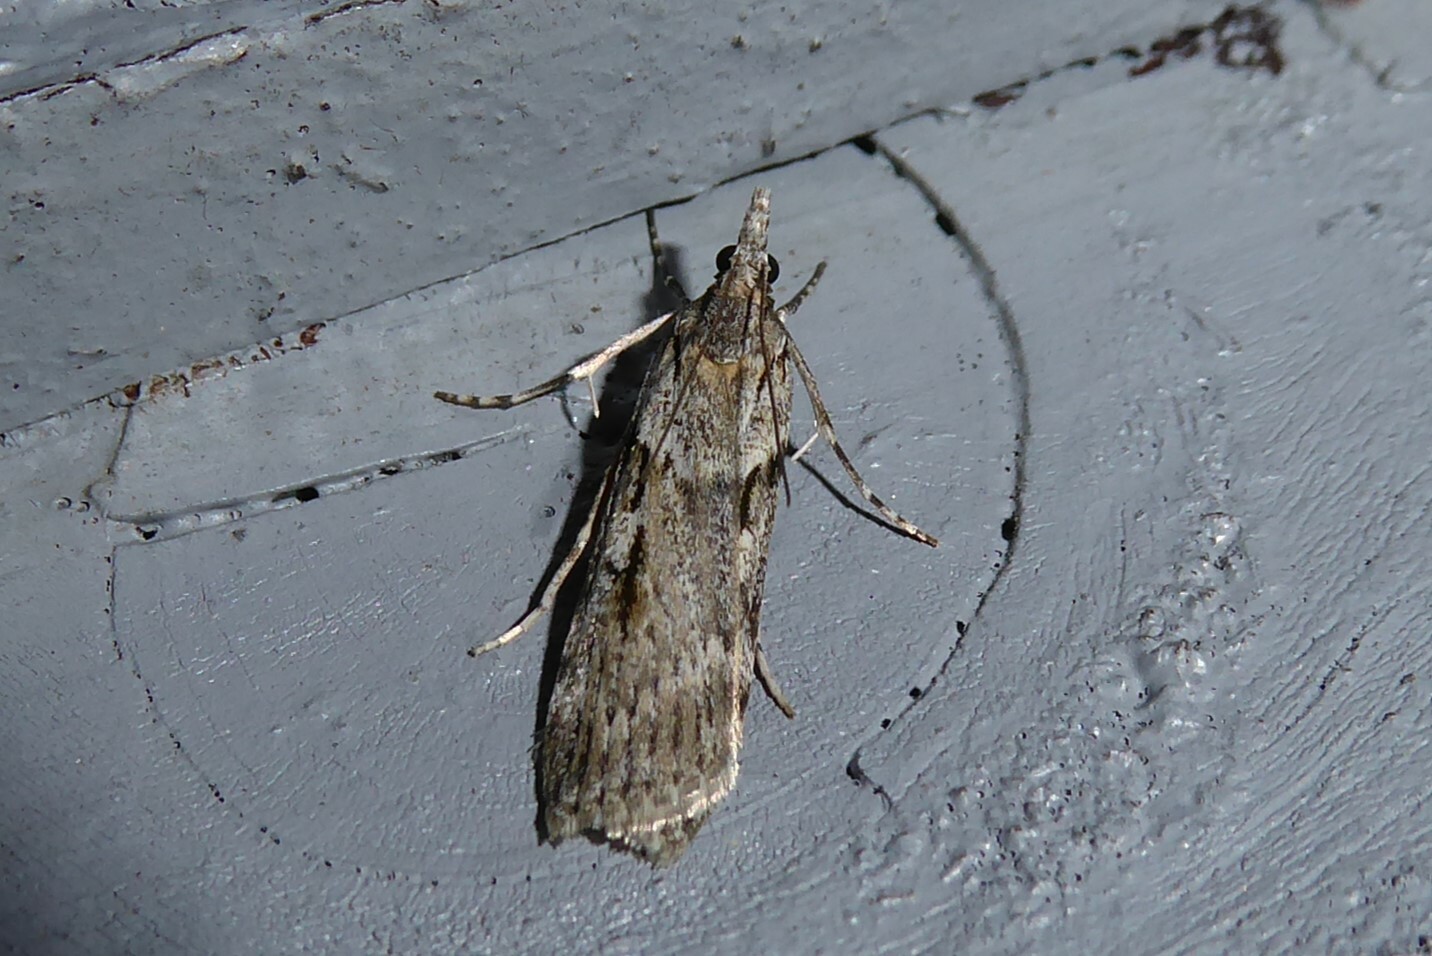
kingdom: Animalia
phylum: Arthropoda
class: Insecta
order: Lepidoptera
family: Crambidae
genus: Scoparia
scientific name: Scoparia halopis
